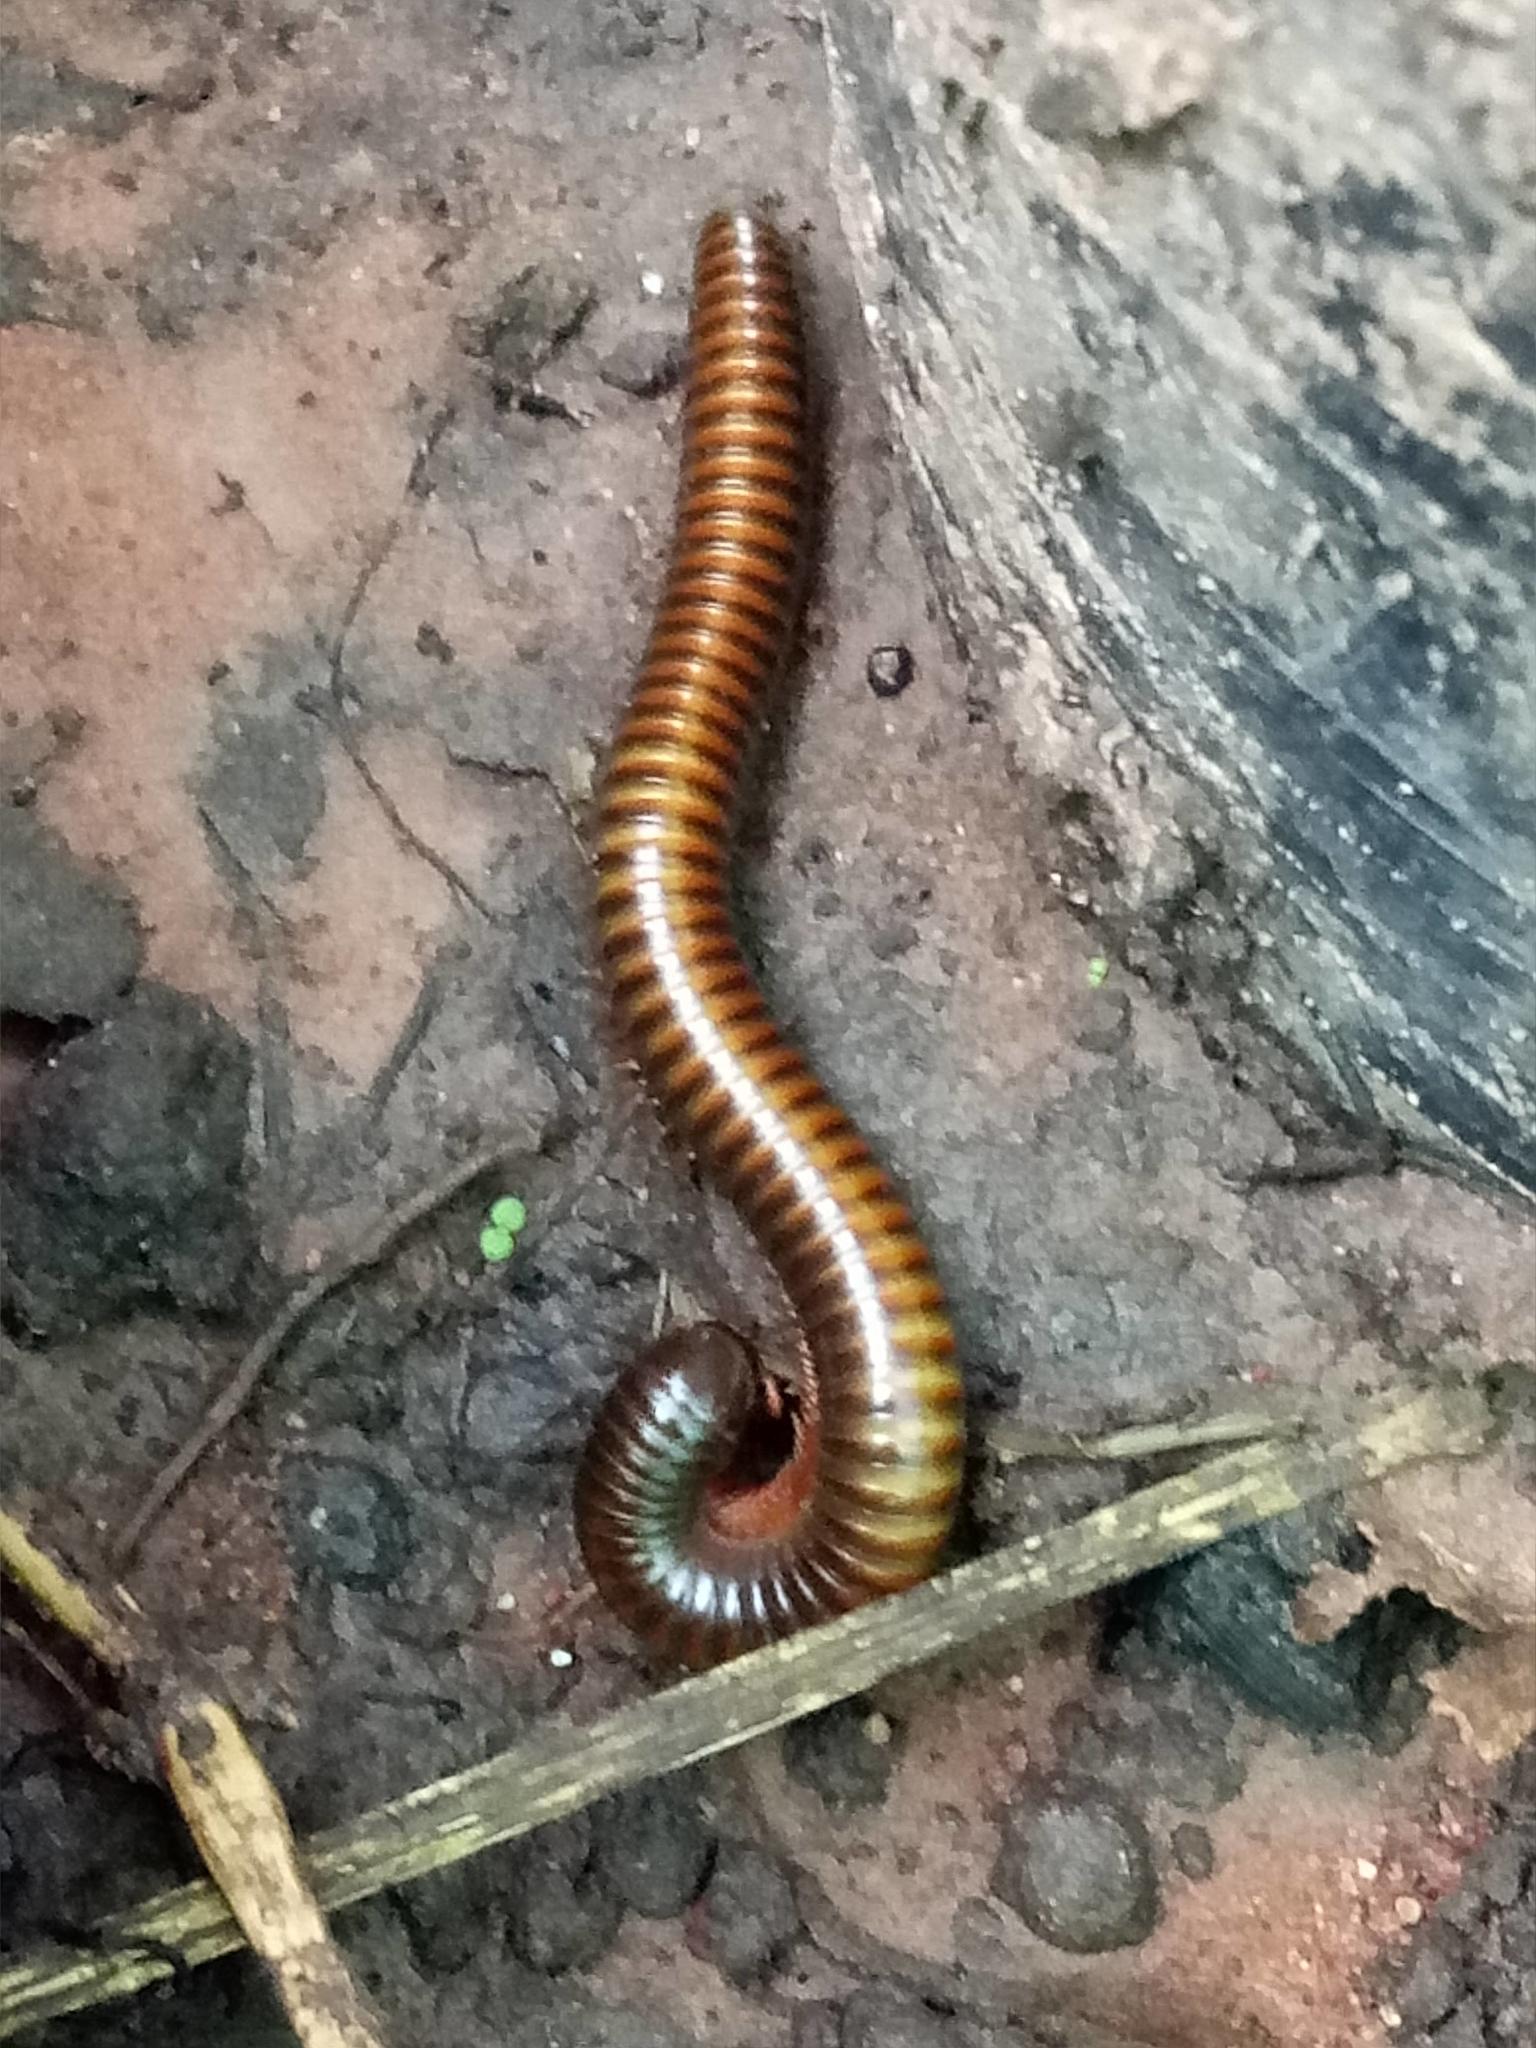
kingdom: Animalia
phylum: Arthropoda
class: Diplopoda
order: Spirostreptida
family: Harpagophoridae
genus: Thyropygus
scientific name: Thyropygus allevatus
